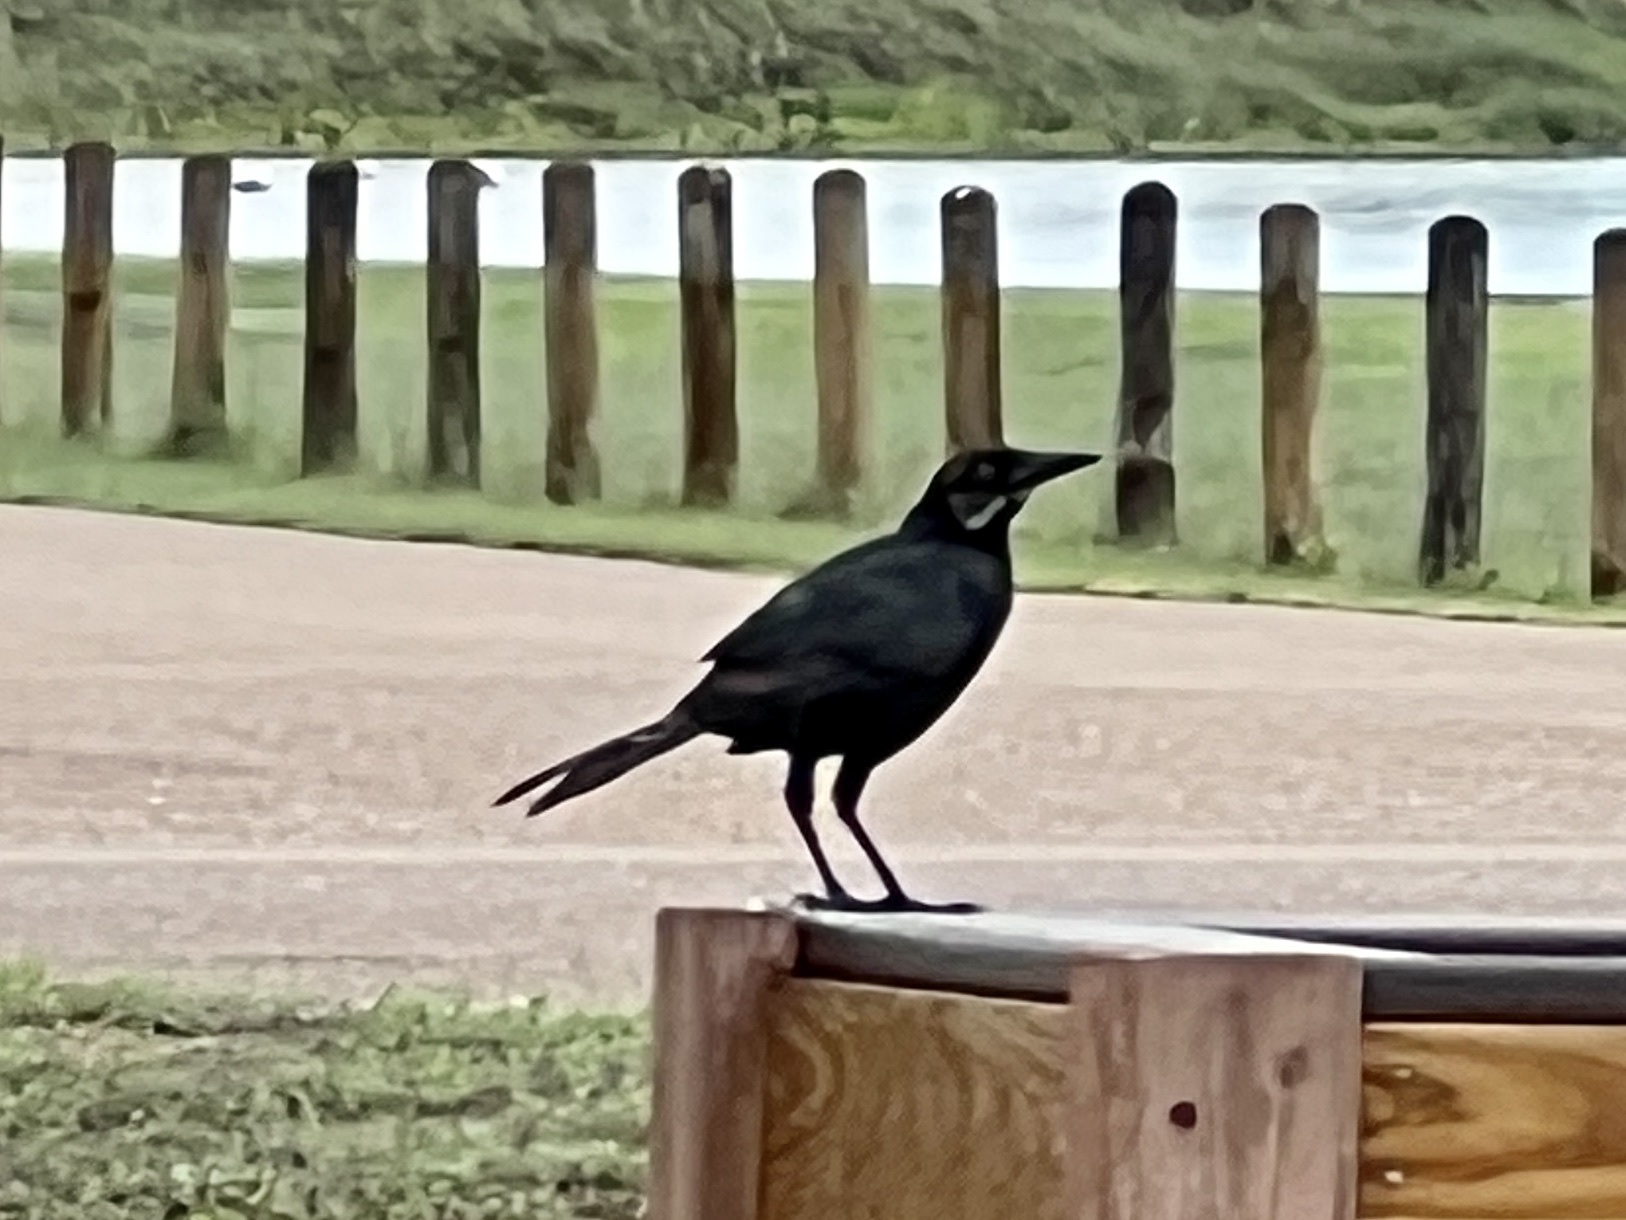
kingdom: Animalia
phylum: Chordata
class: Aves
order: Passeriformes
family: Icteridae
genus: Quiscalus
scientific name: Quiscalus mexicanus
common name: Great-tailed grackle
